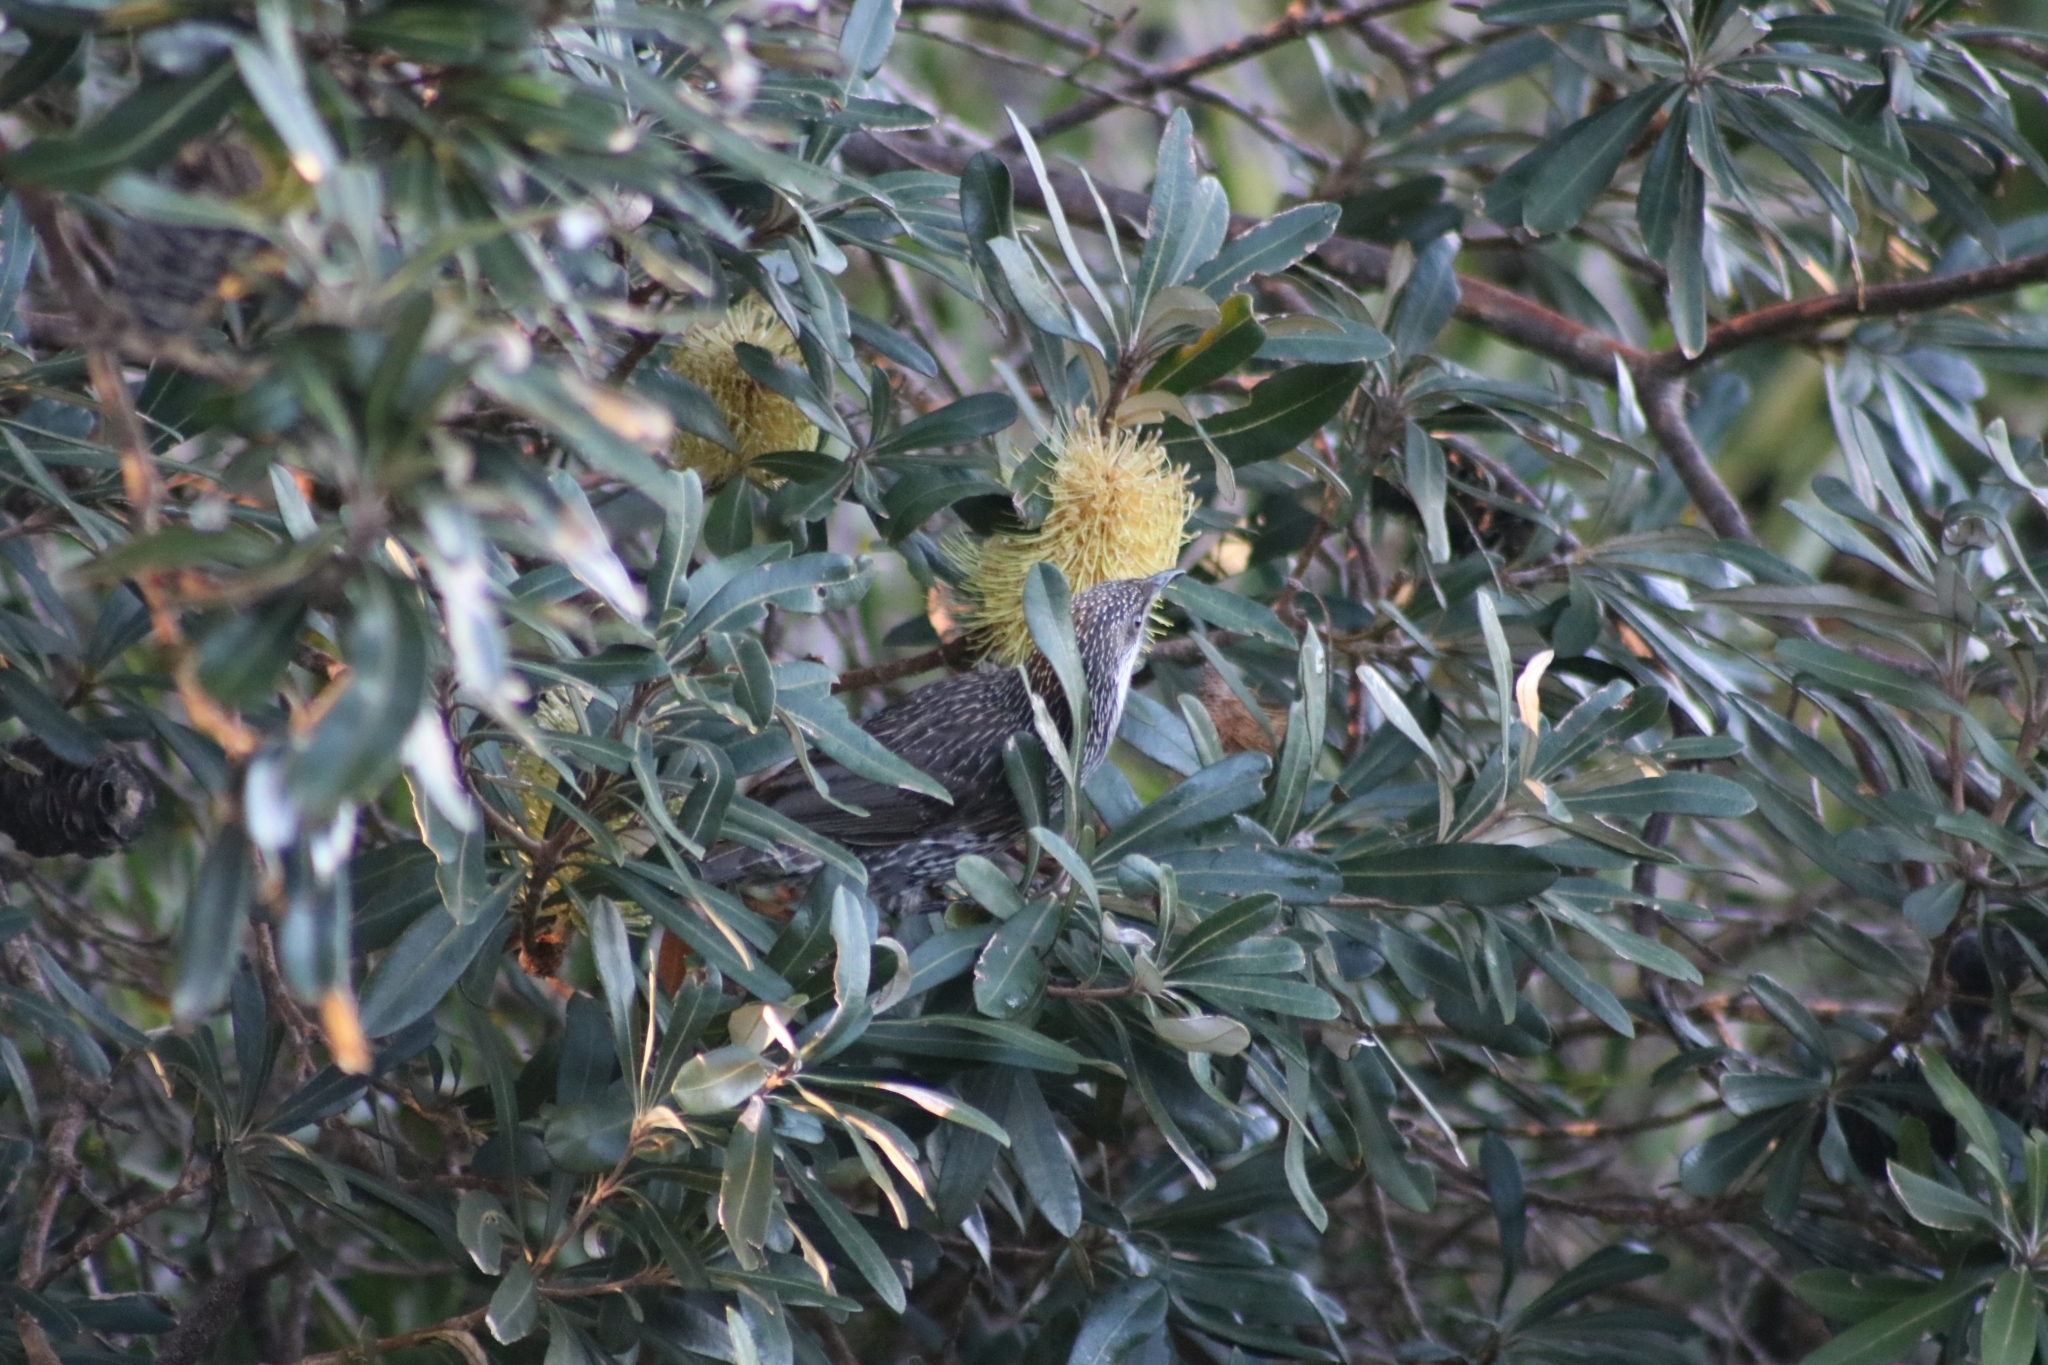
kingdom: Animalia
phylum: Chordata
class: Aves
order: Passeriformes
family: Meliphagidae
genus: Anthochaera
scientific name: Anthochaera chrysoptera
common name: Little wattlebird
